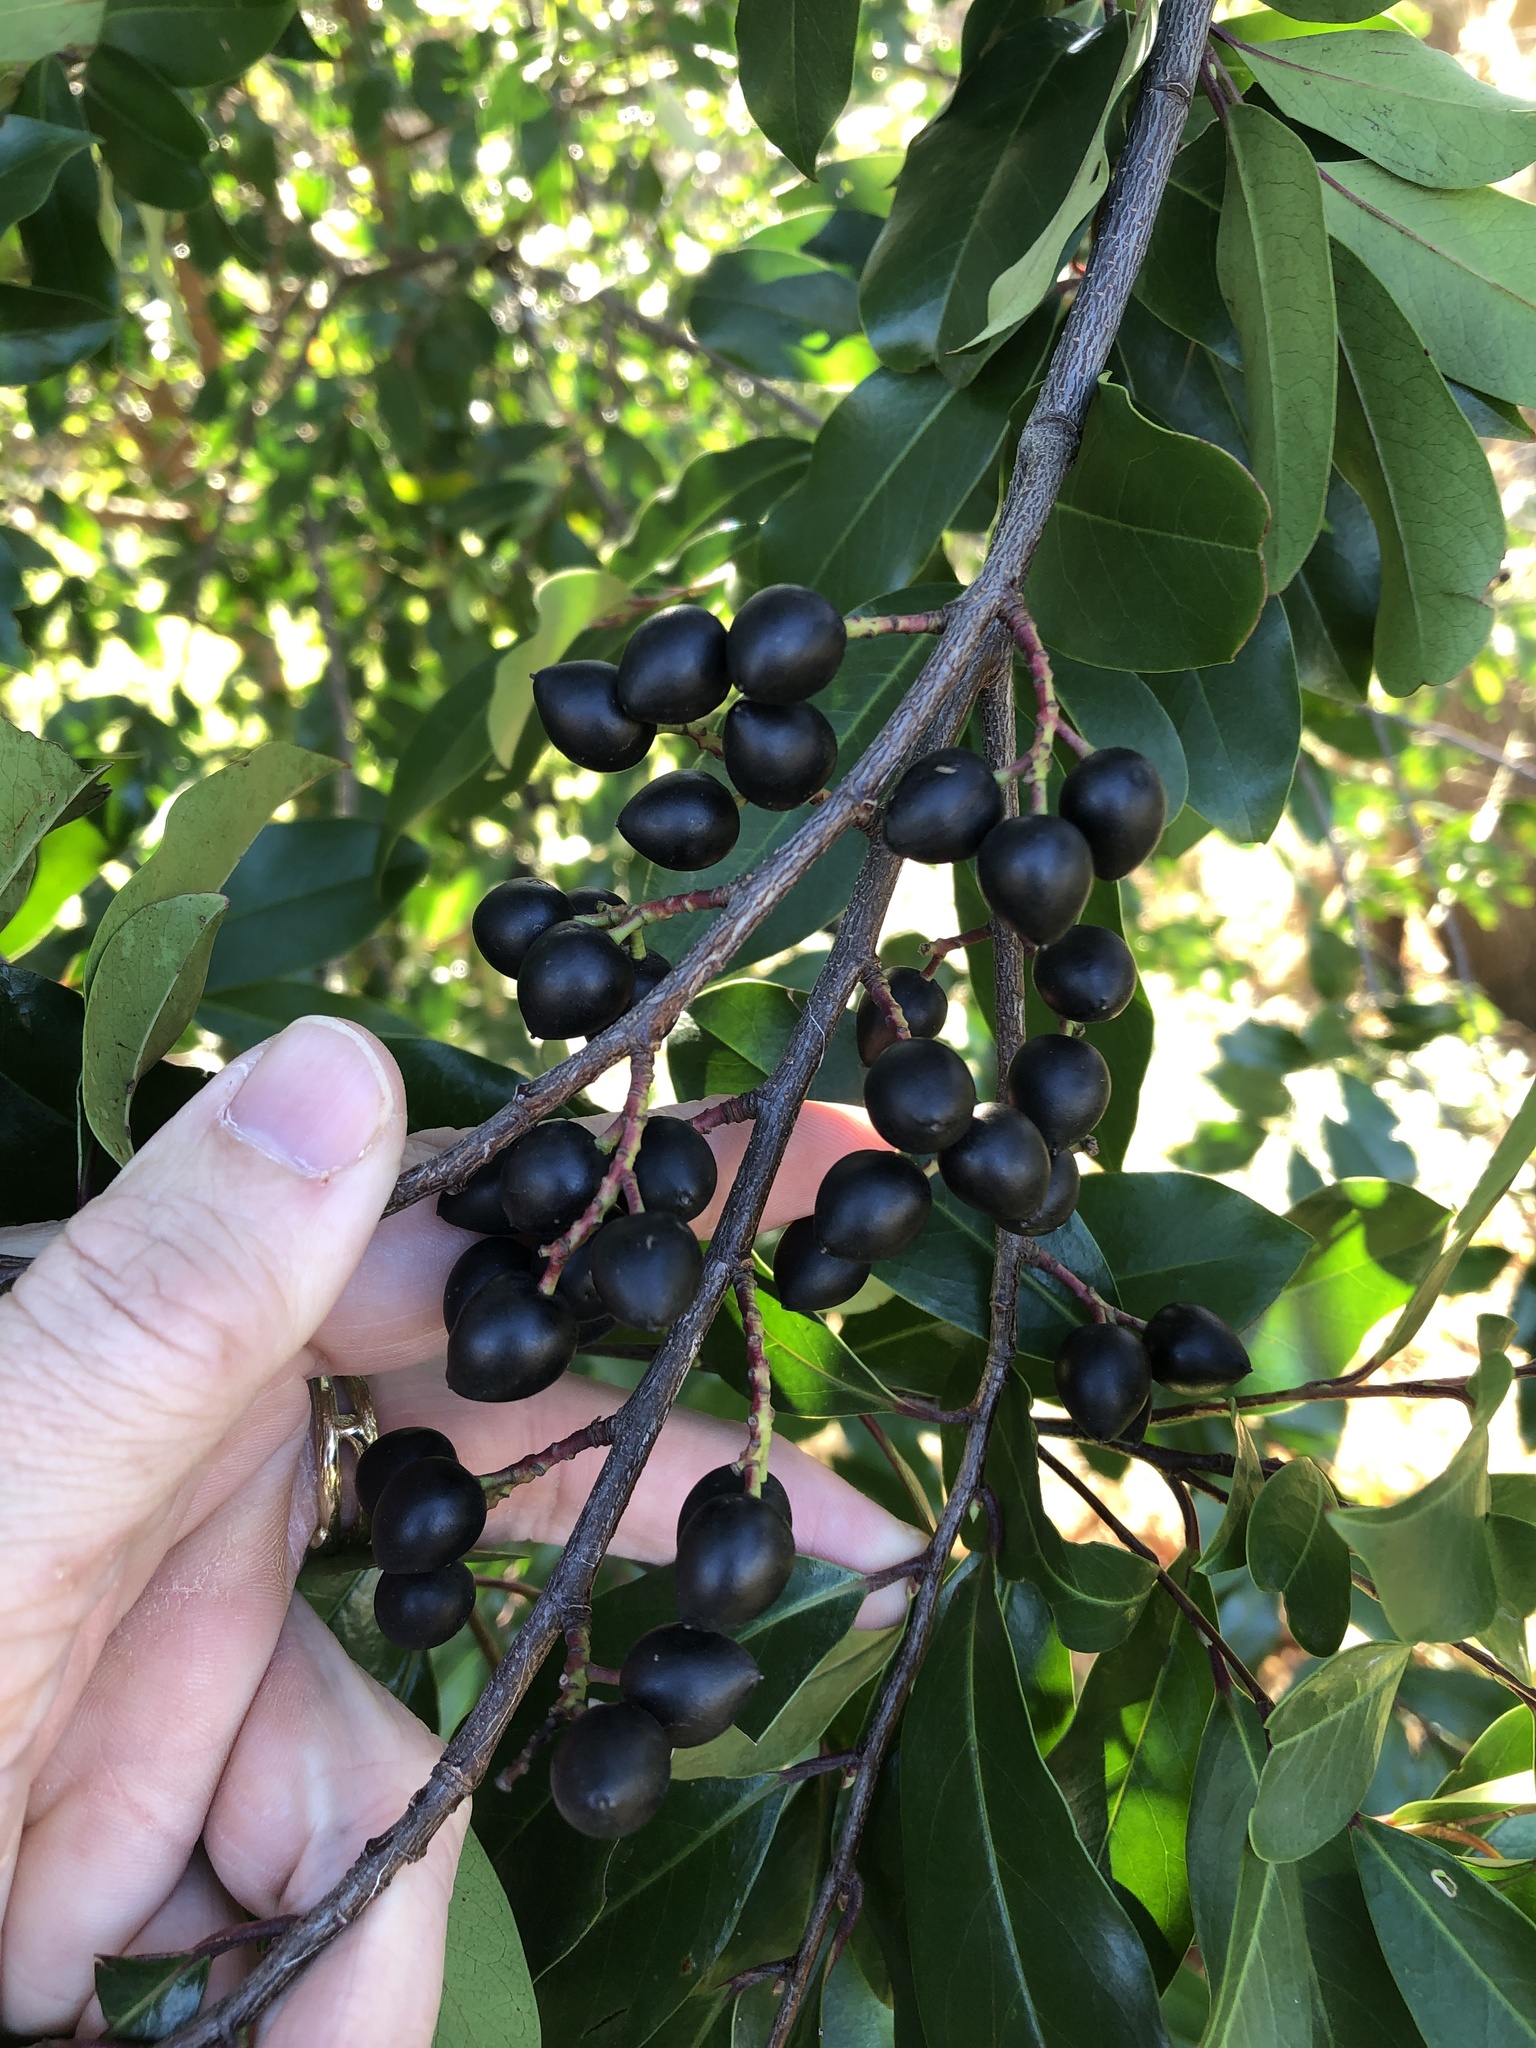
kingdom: Plantae
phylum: Tracheophyta
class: Magnoliopsida
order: Rosales
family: Rosaceae
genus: Prunus
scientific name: Prunus caroliniana
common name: Carolina laurel cherry
